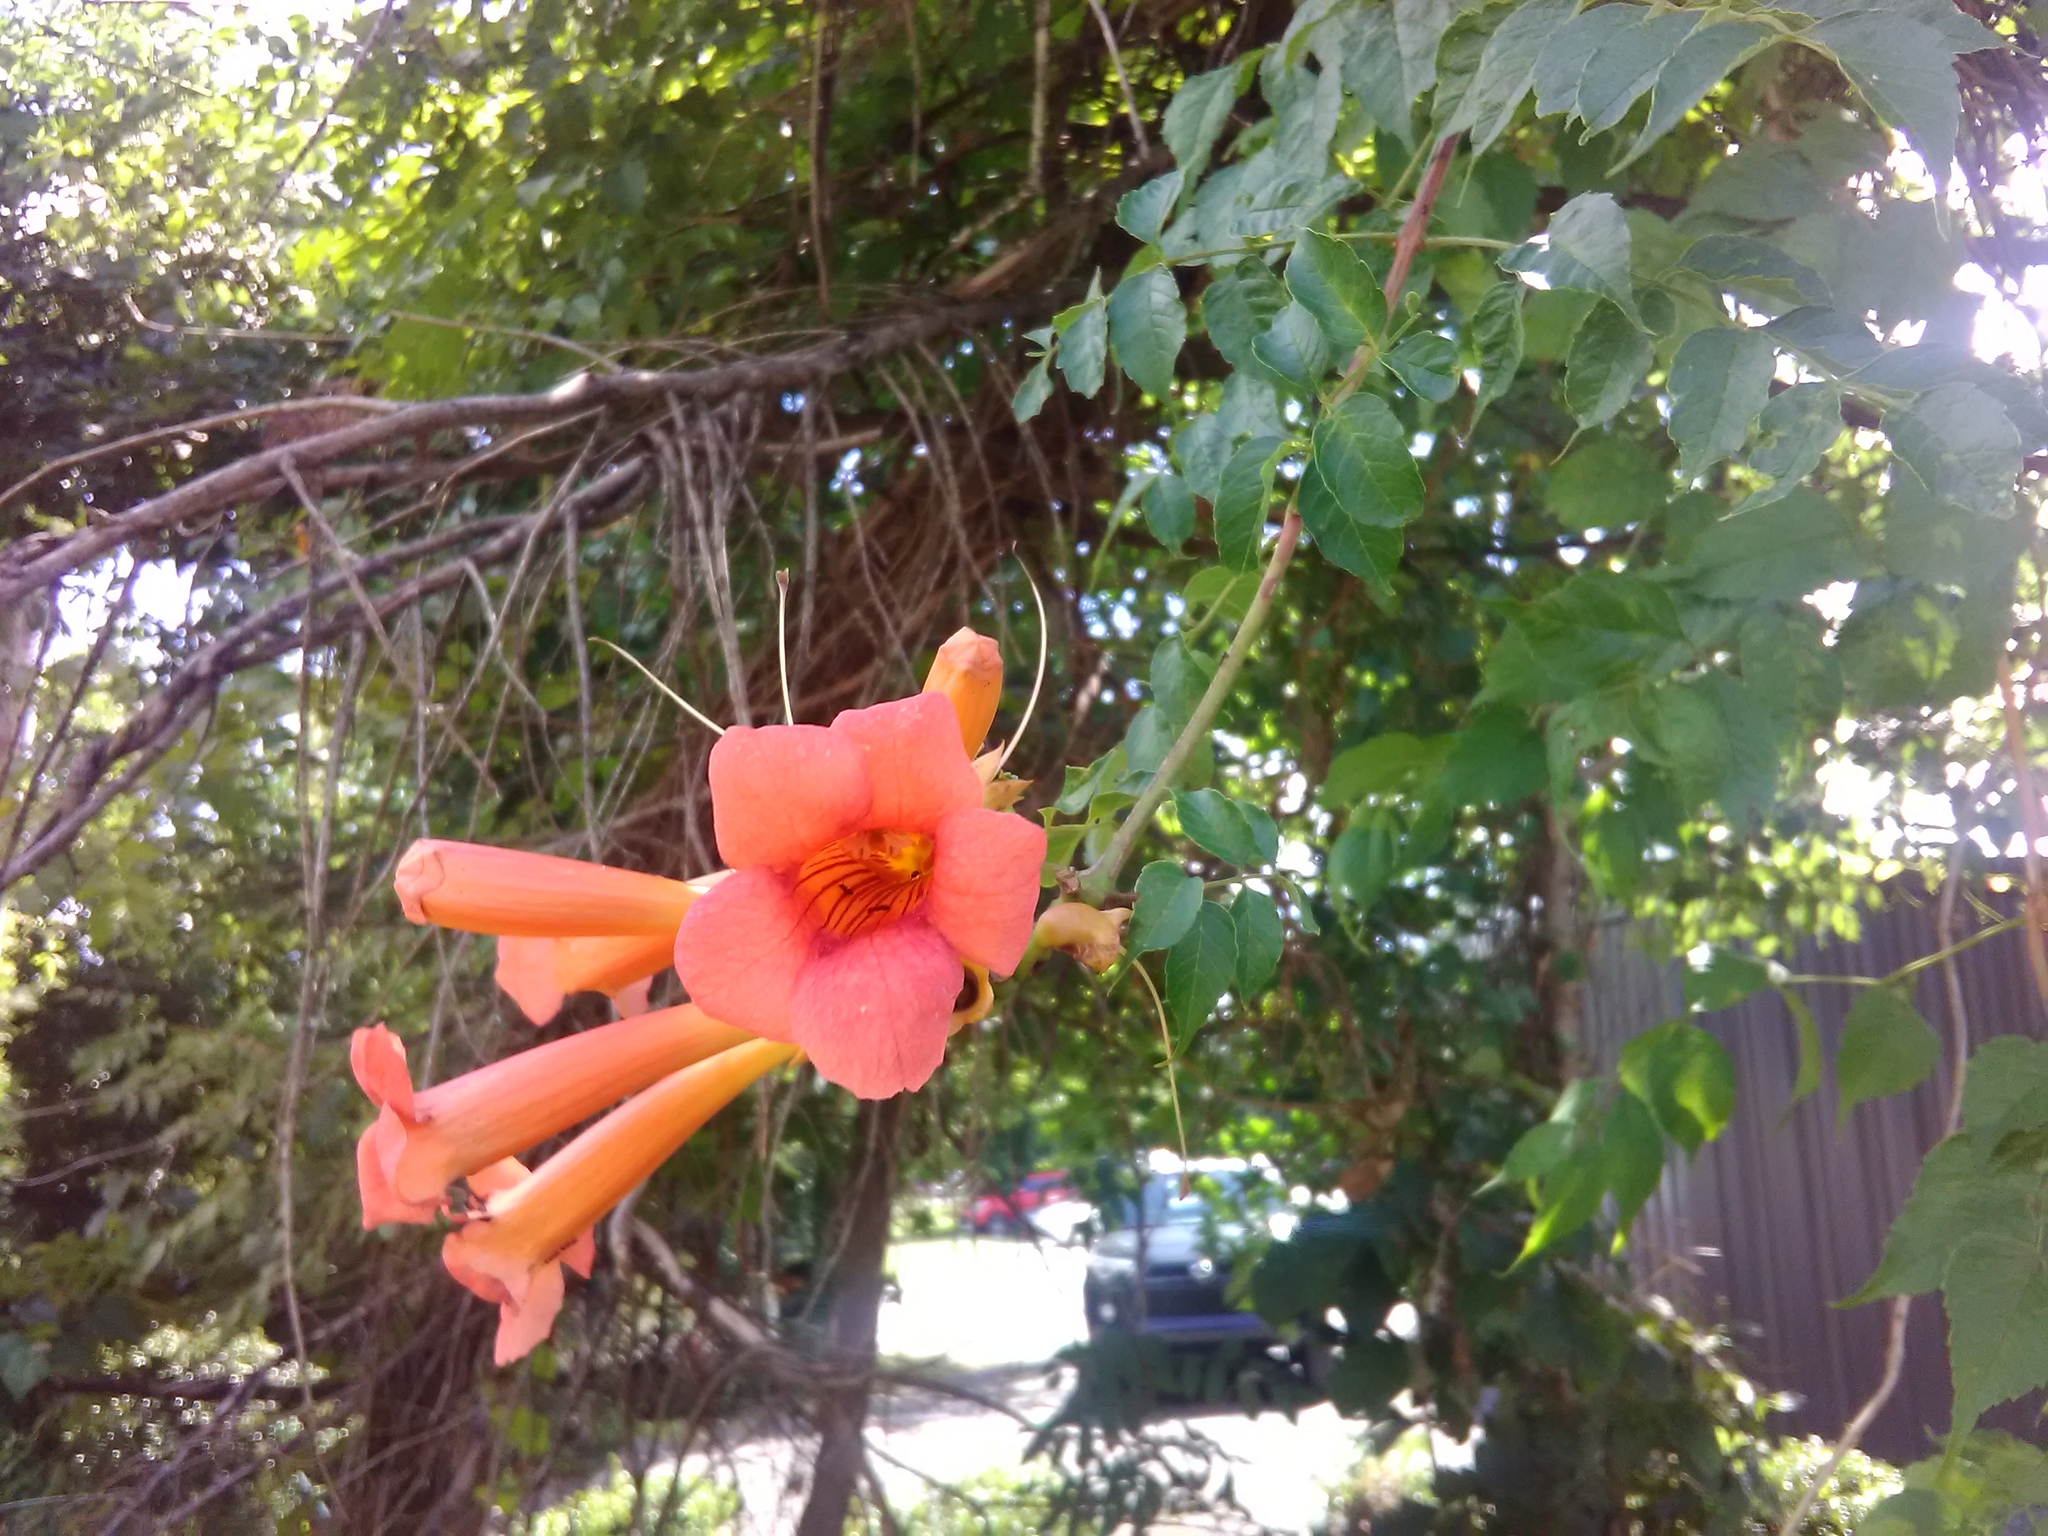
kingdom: Plantae
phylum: Tracheophyta
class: Magnoliopsida
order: Lamiales
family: Bignoniaceae
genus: Campsis
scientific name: Campsis radicans
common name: Trumpet-creeper
